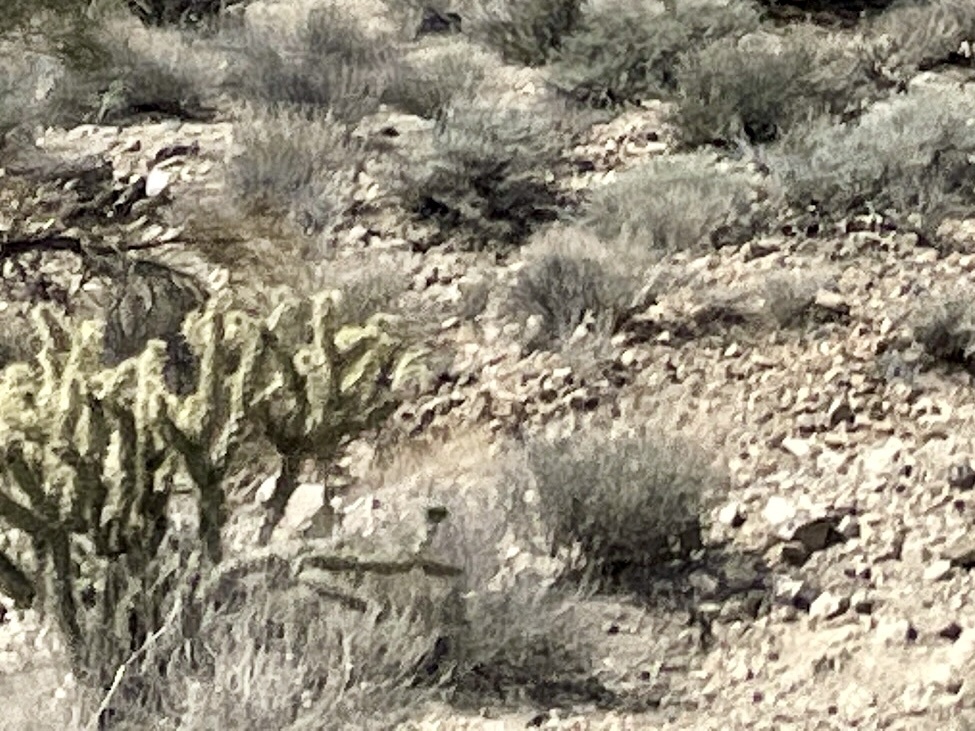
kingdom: Plantae
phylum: Tracheophyta
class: Magnoliopsida
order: Caryophyllales
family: Cactaceae
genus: Cylindropuntia
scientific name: Cylindropuntia acanthocarpa
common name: Buckhorn cholla
